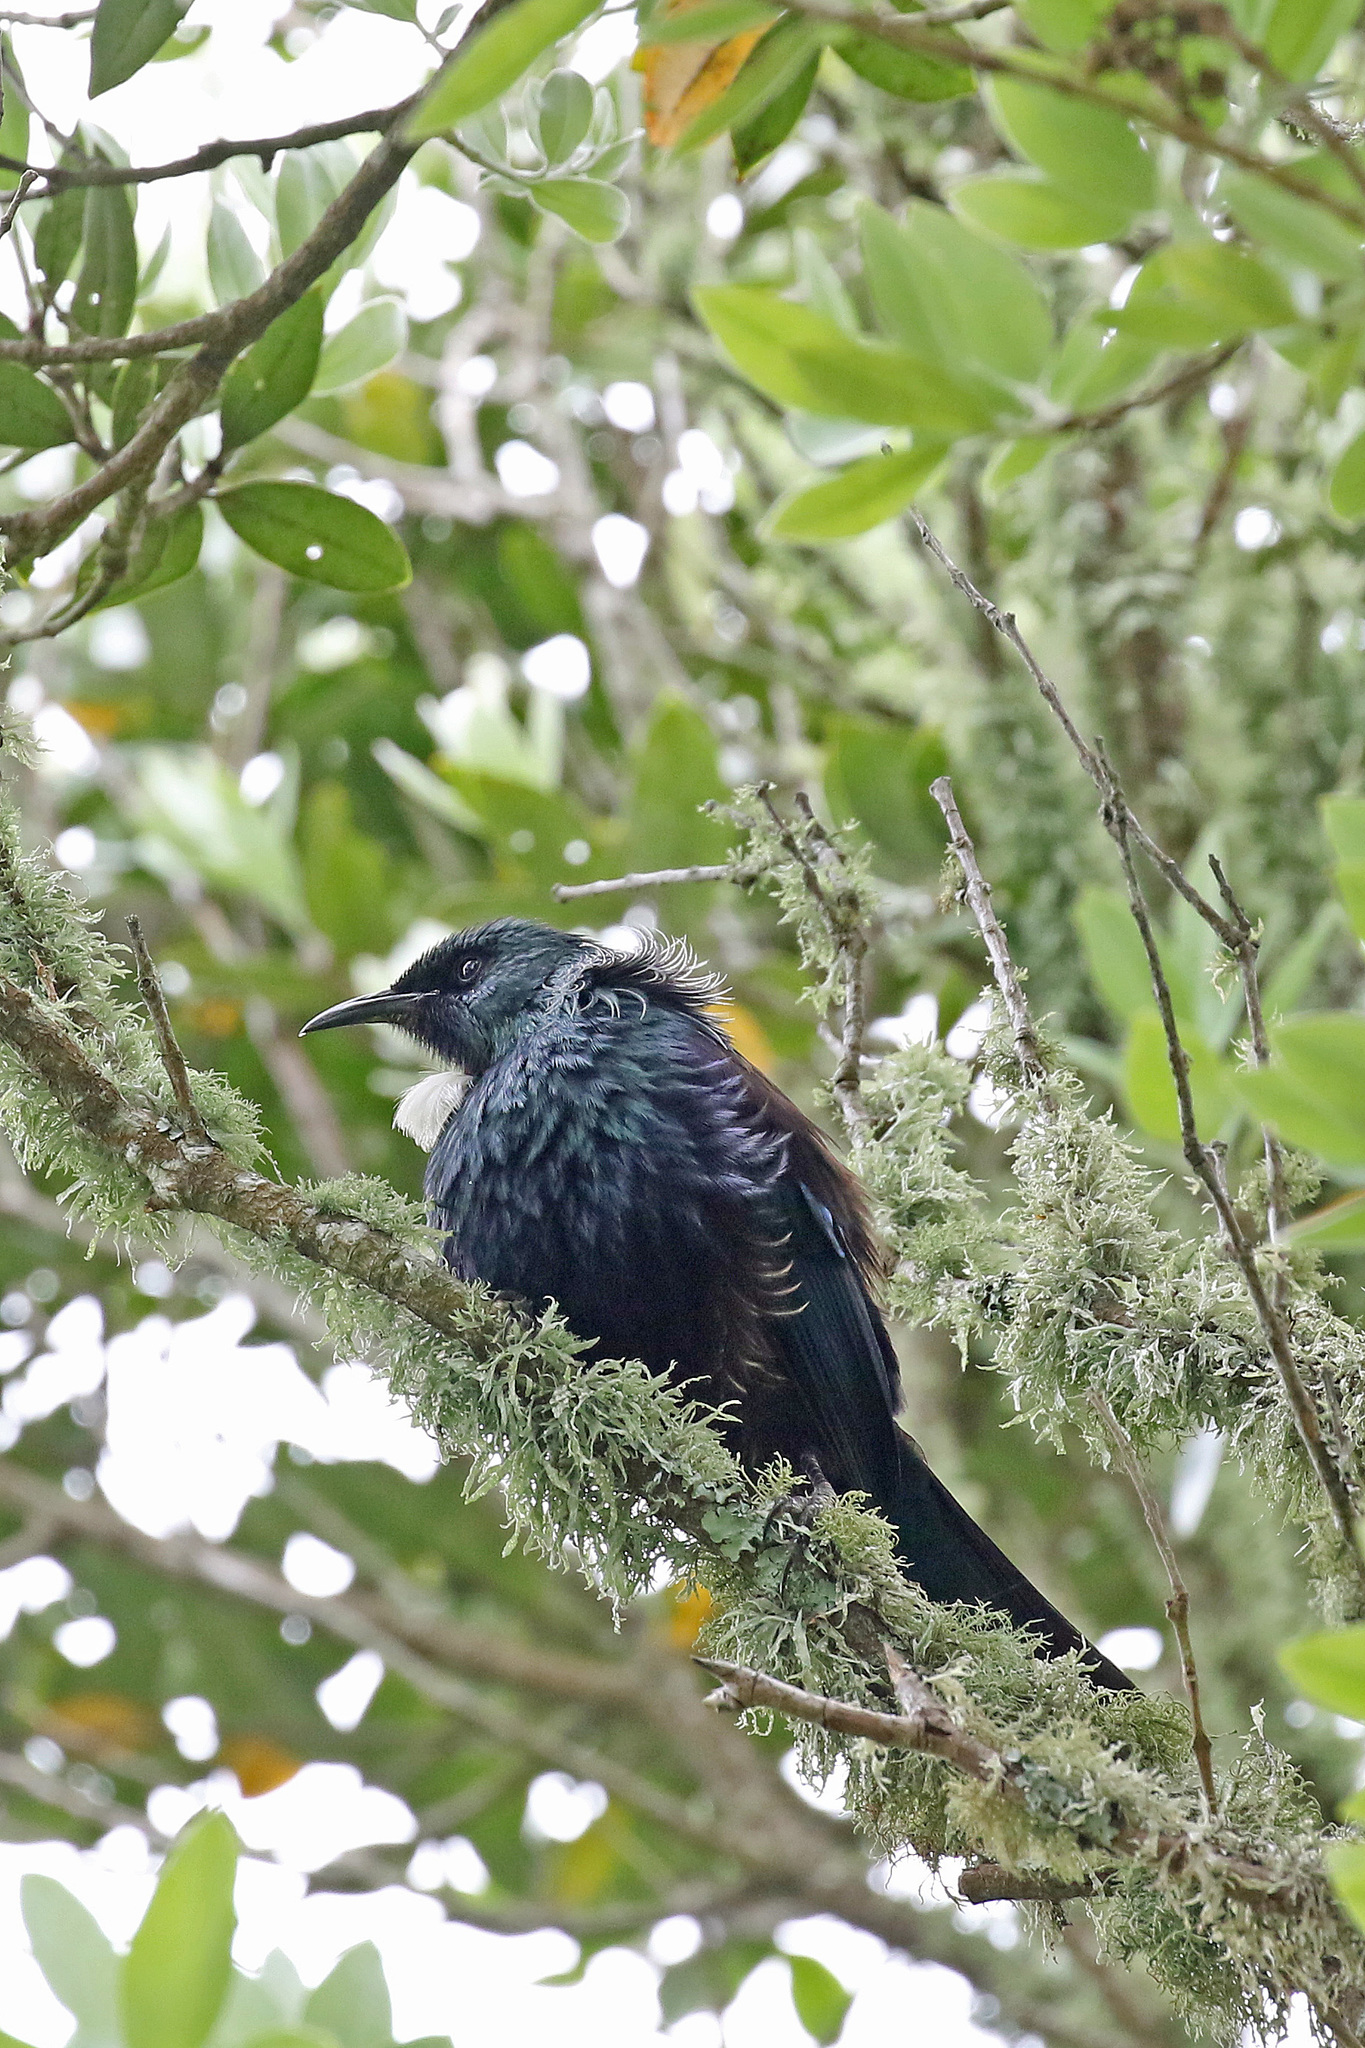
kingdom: Animalia
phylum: Chordata
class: Aves
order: Passeriformes
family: Meliphagidae
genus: Prosthemadera
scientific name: Prosthemadera novaeseelandiae
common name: Tui
